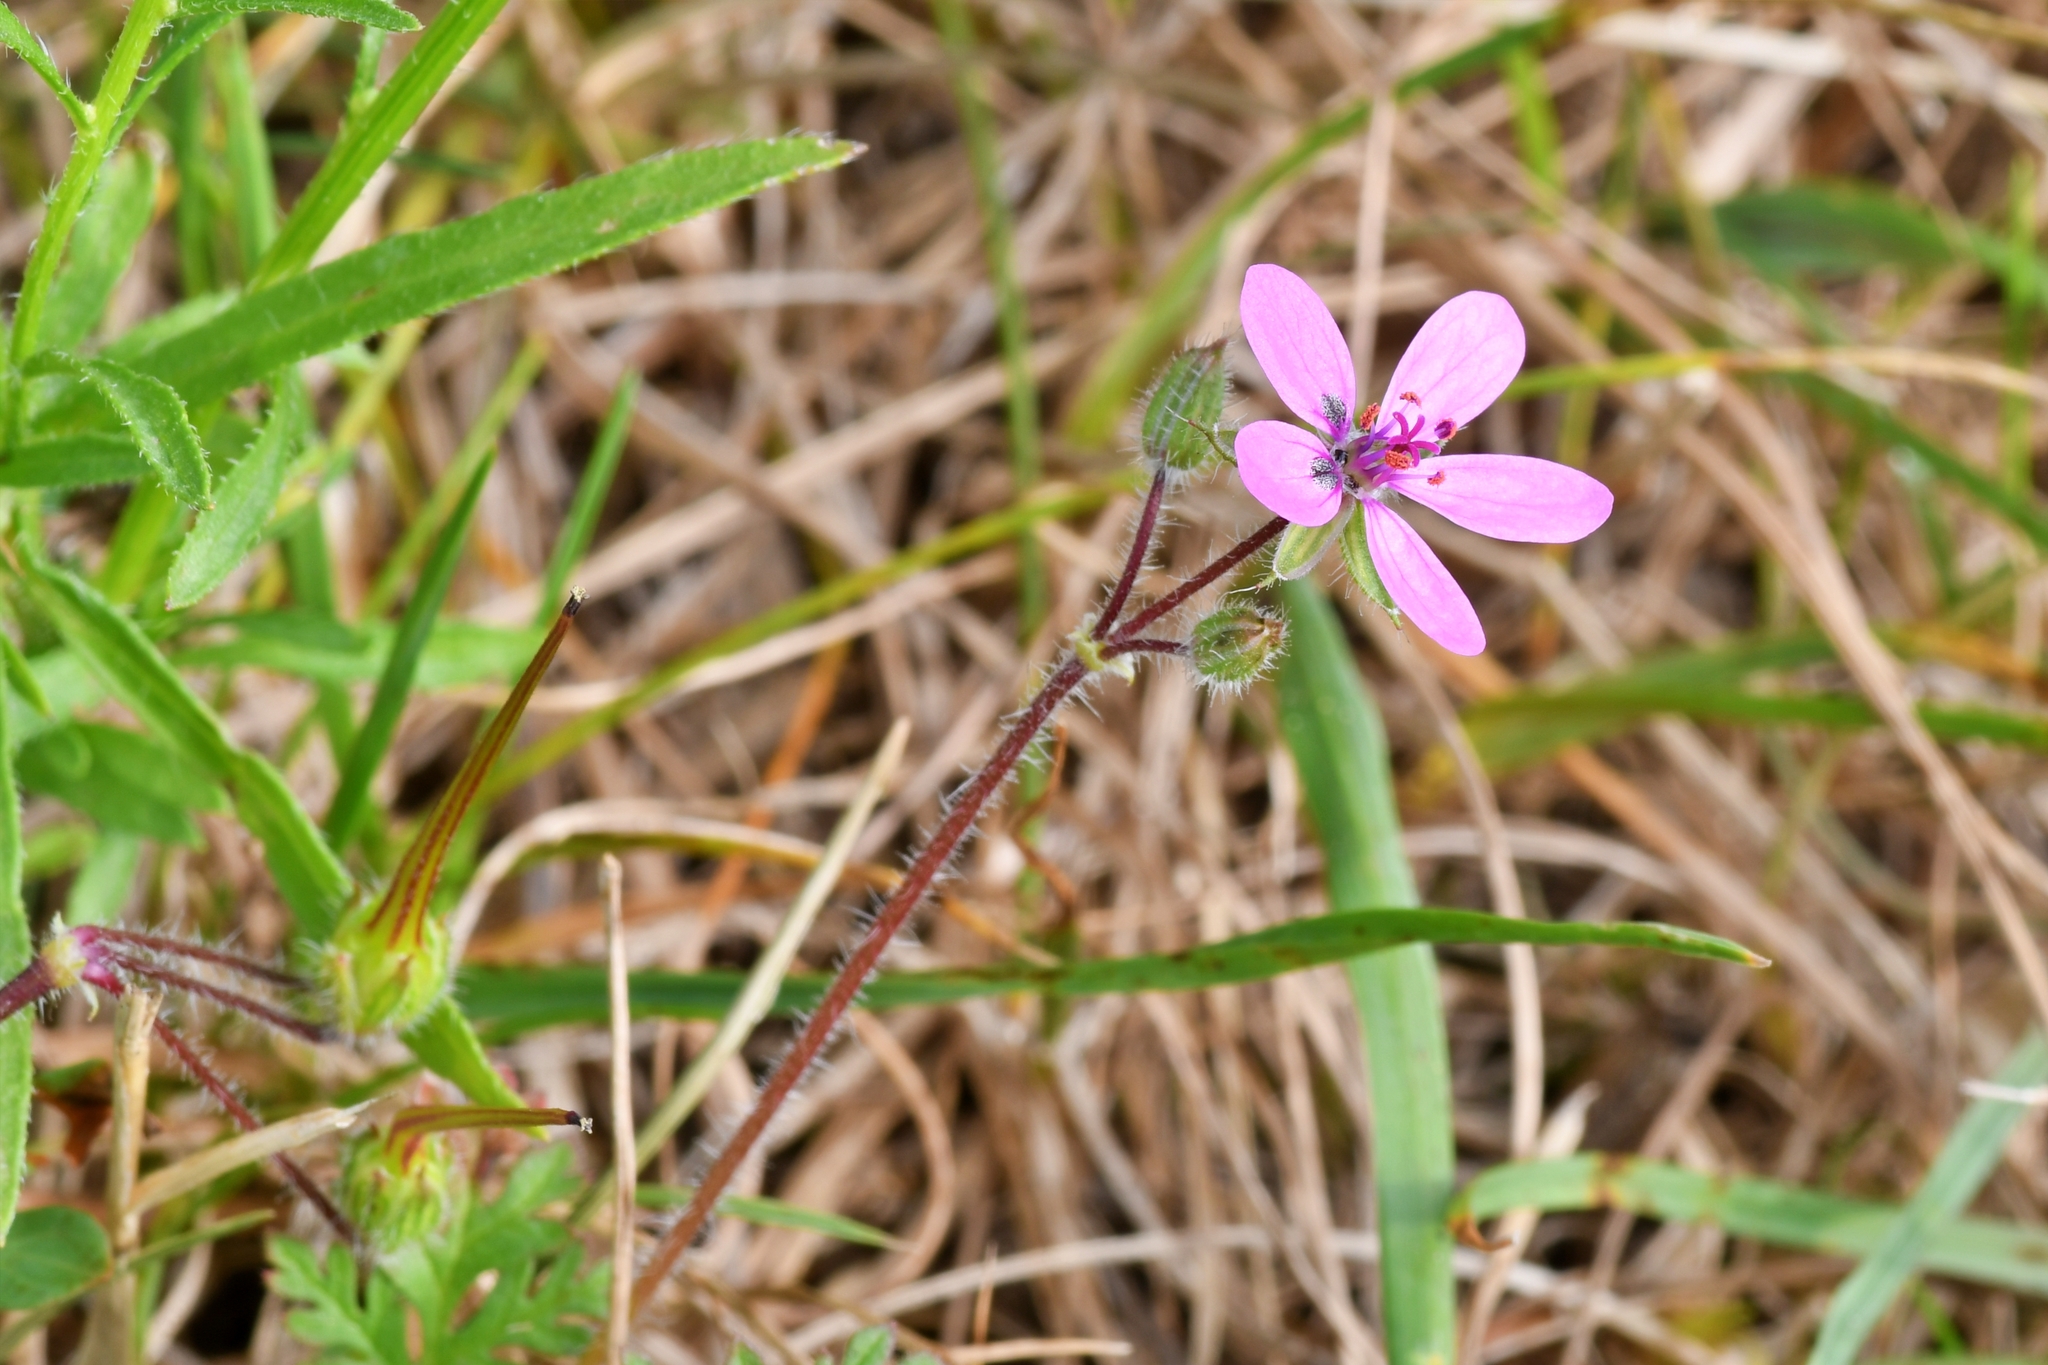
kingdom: Plantae
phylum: Tracheophyta
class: Magnoliopsida
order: Geraniales
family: Geraniaceae
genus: Erodium
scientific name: Erodium cicutarium
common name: Common stork's-bill
